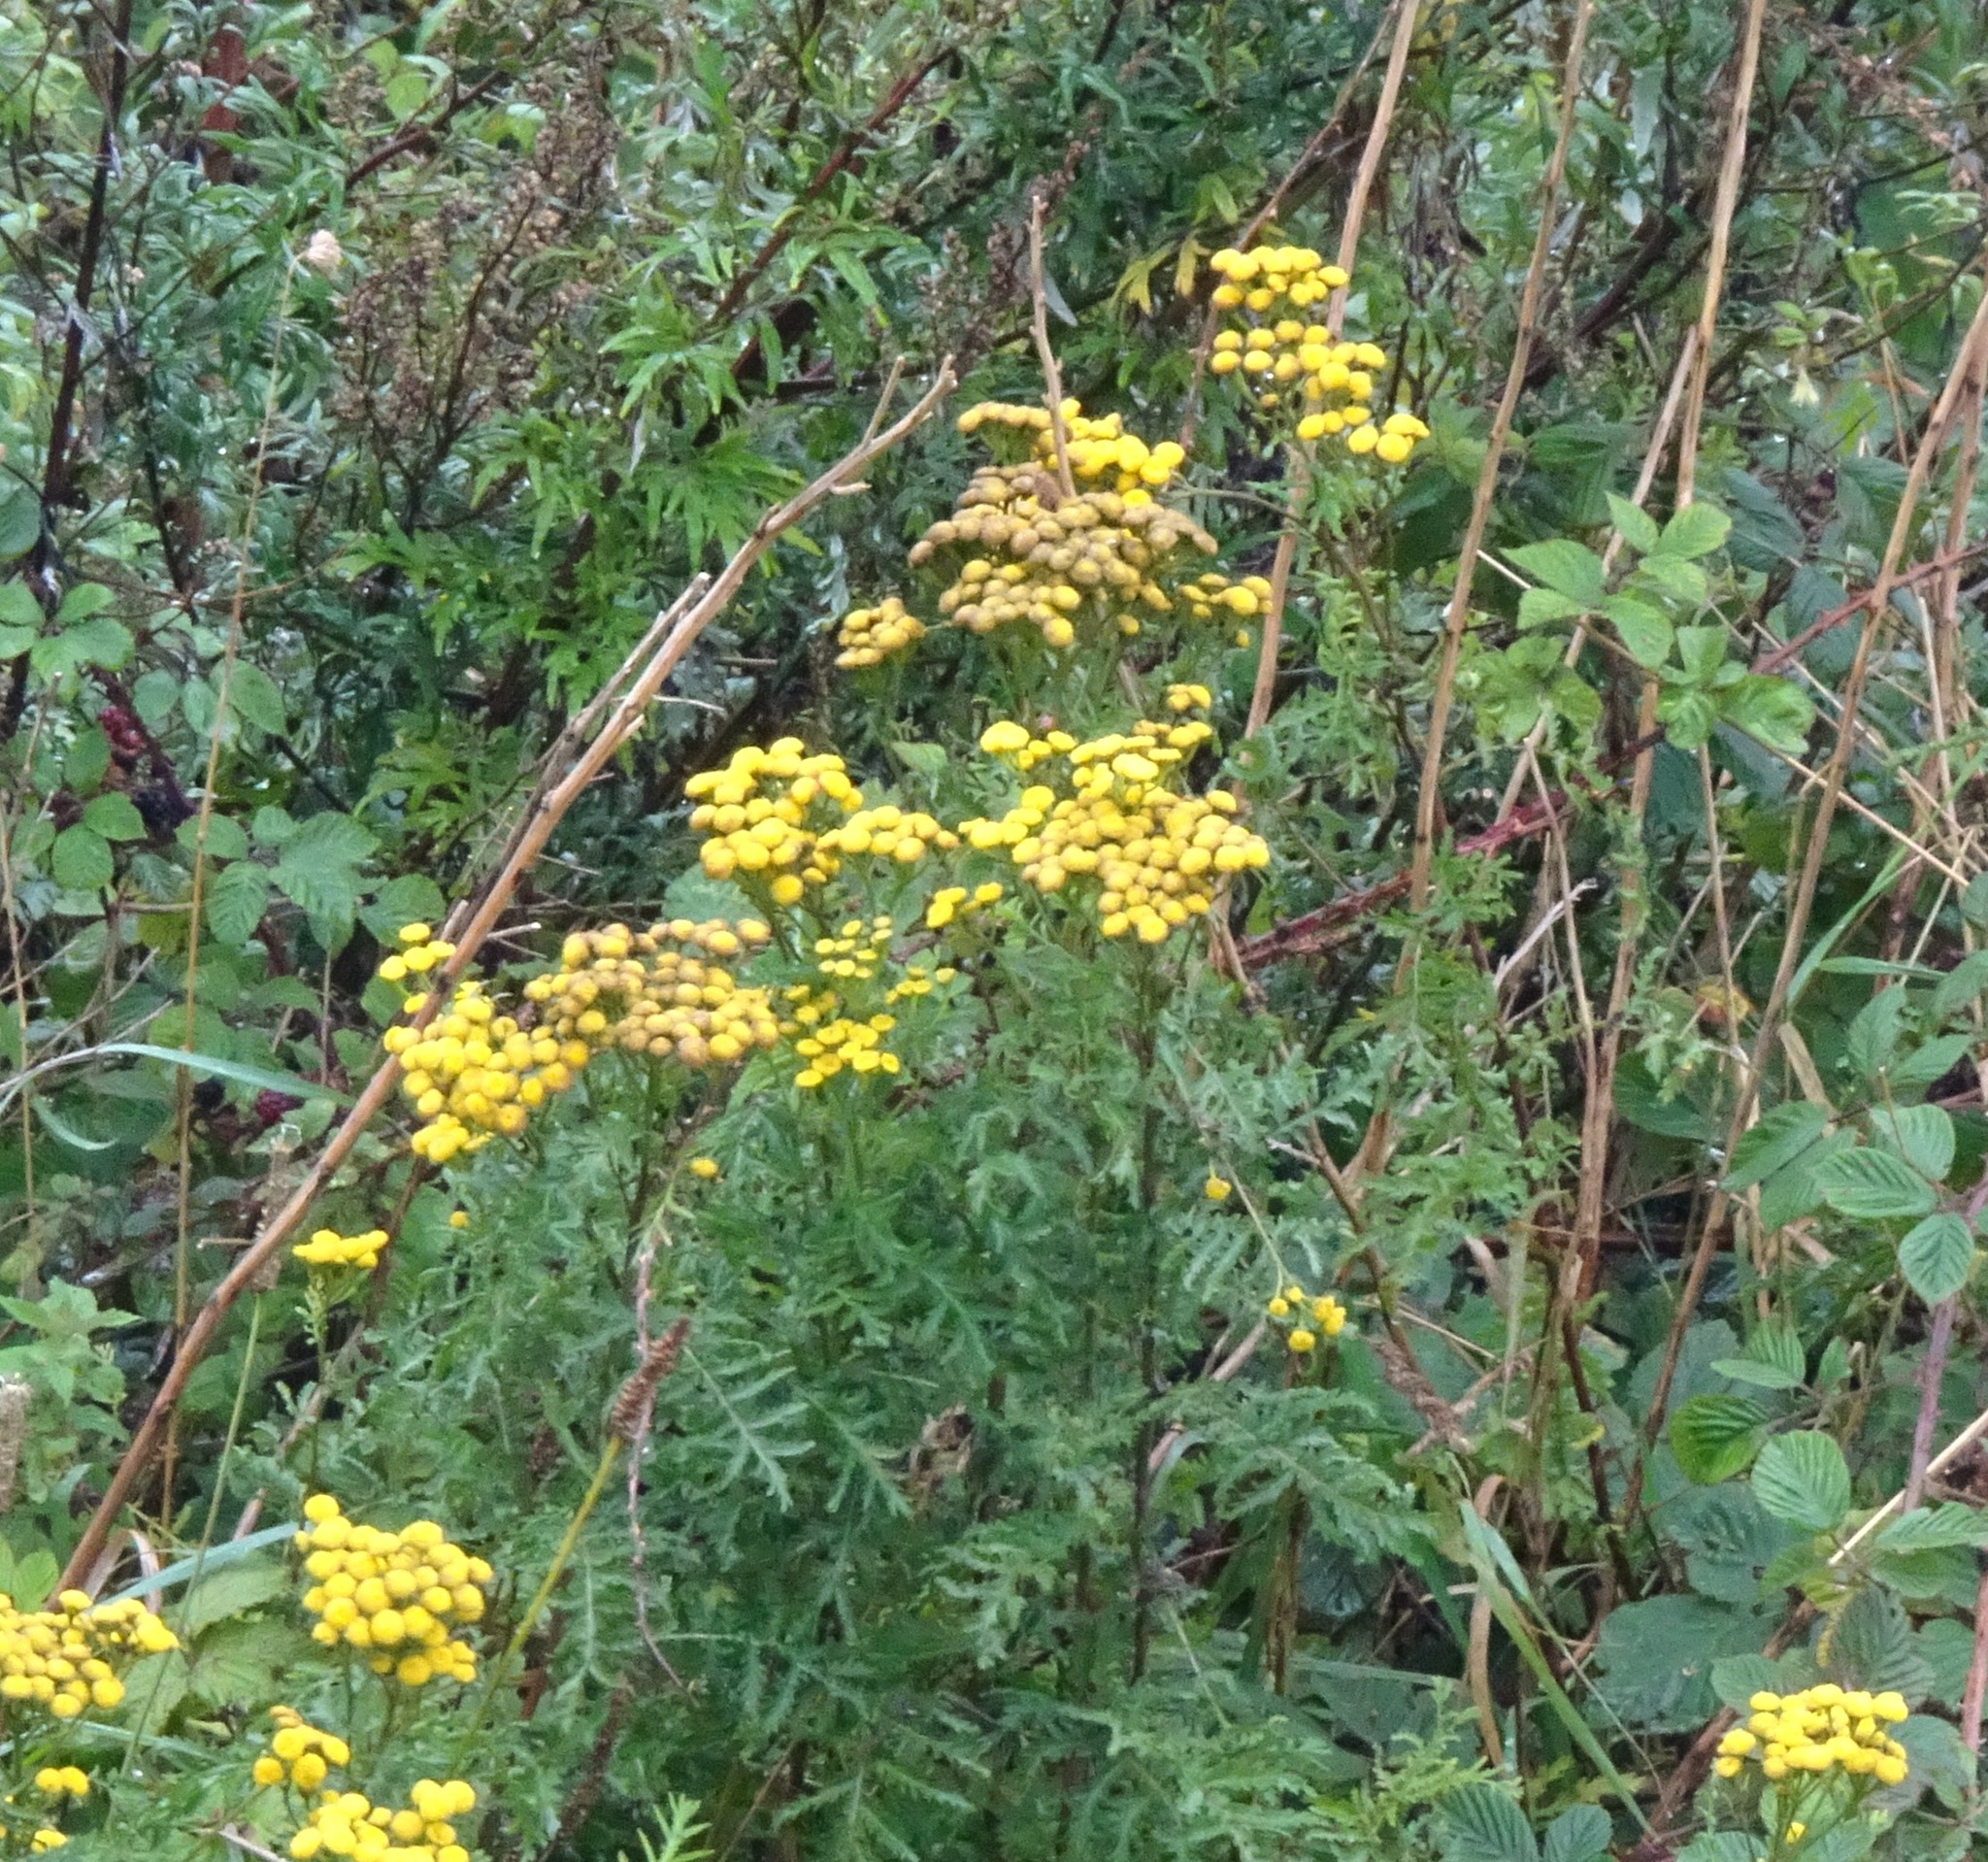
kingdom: Plantae
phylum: Tracheophyta
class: Magnoliopsida
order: Asterales
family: Asteraceae
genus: Tanacetum
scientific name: Tanacetum vulgare
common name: Common tansy
